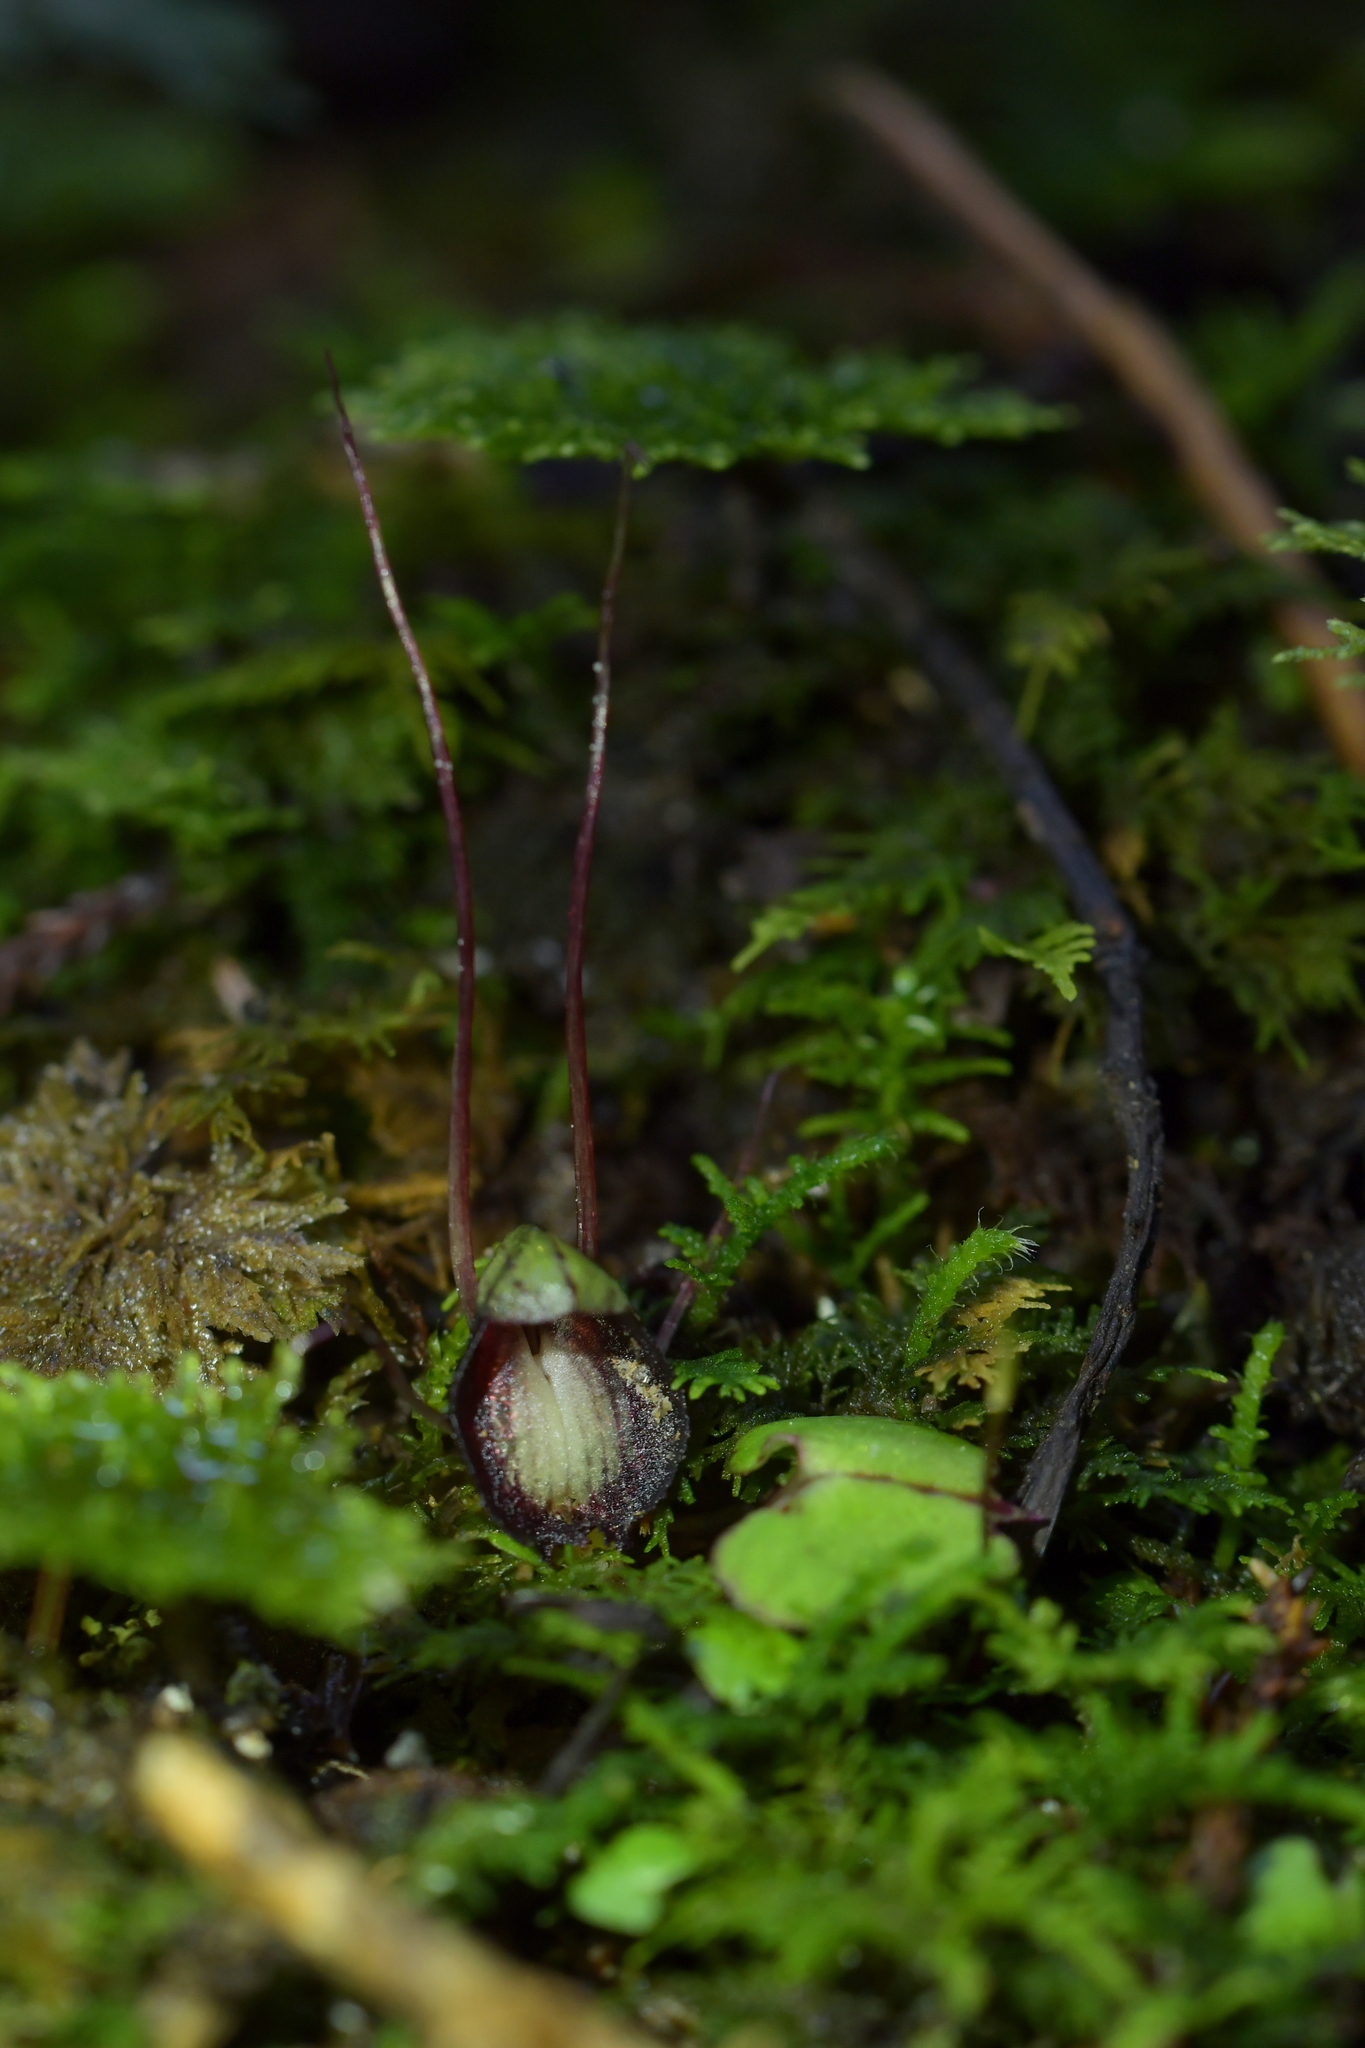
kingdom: Plantae
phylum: Tracheophyta
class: Liliopsida
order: Asparagales
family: Orchidaceae
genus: Corybas
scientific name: Corybas sanctigeorgianus
